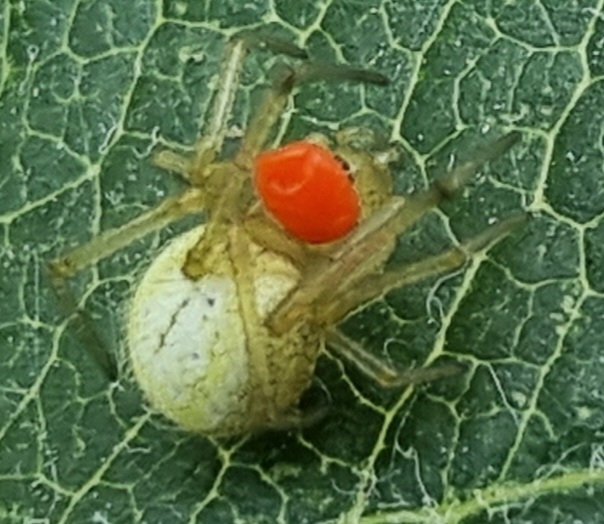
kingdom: Animalia
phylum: Arthropoda
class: Arachnida
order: Araneae
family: Theridiidae
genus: Enoplognatha
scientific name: Enoplognatha
